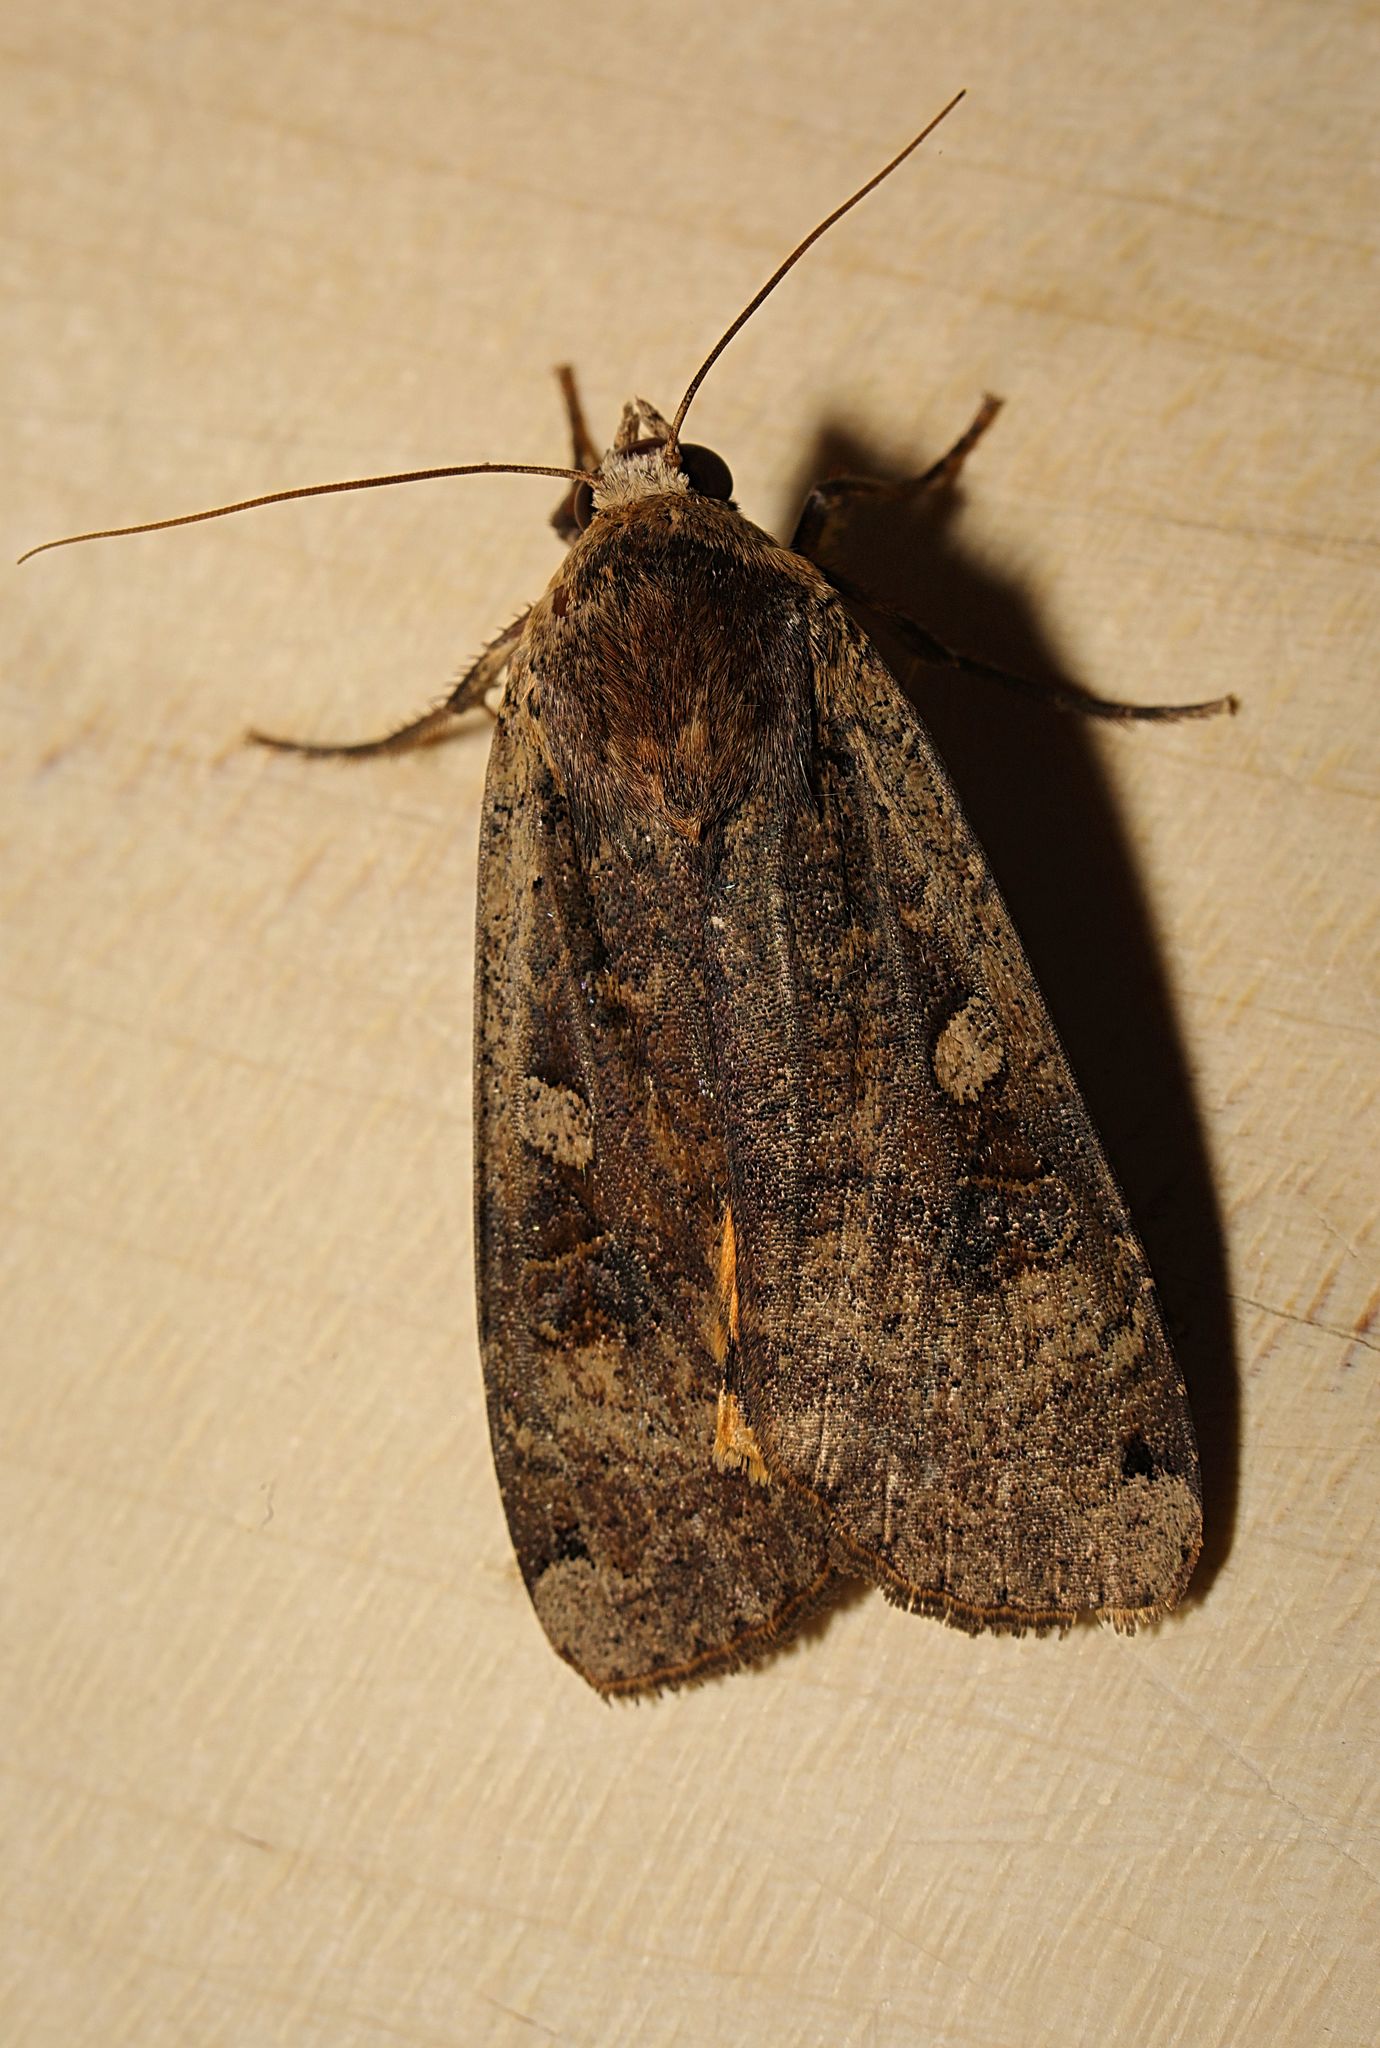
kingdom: Animalia
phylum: Arthropoda
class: Insecta
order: Lepidoptera
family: Noctuidae
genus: Noctua
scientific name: Noctua pronuba
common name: Large yellow underwing
